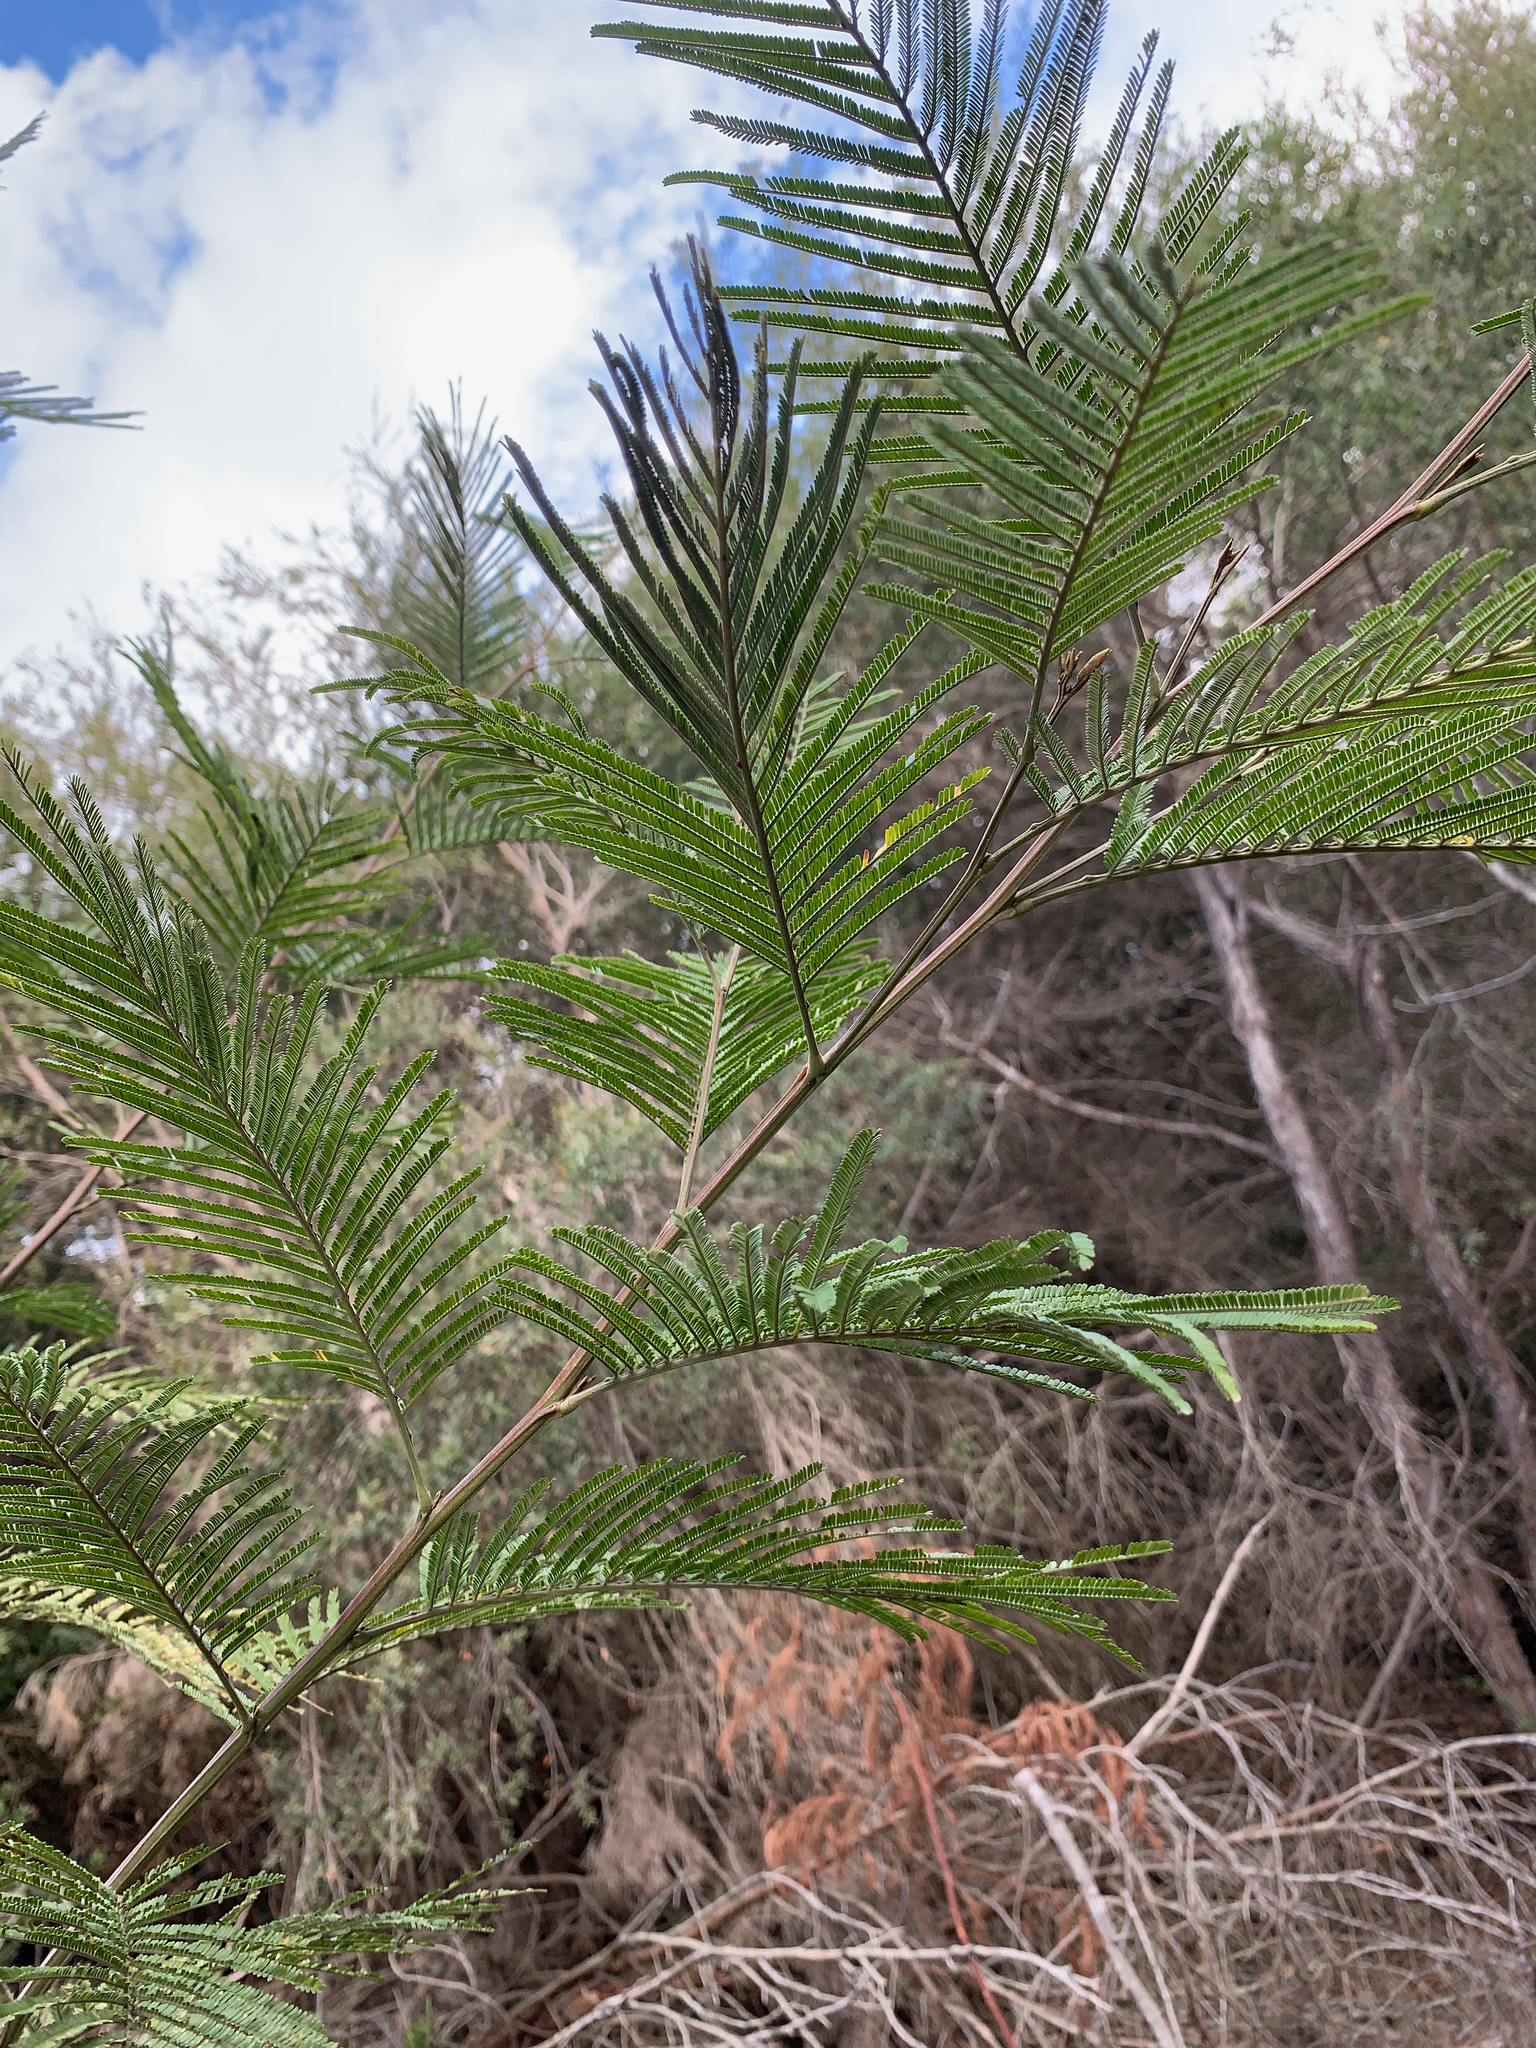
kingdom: Plantae
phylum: Tracheophyta
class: Magnoliopsida
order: Fabales
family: Fabaceae
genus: Acacia
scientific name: Acacia mearnsii
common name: Black wattle
